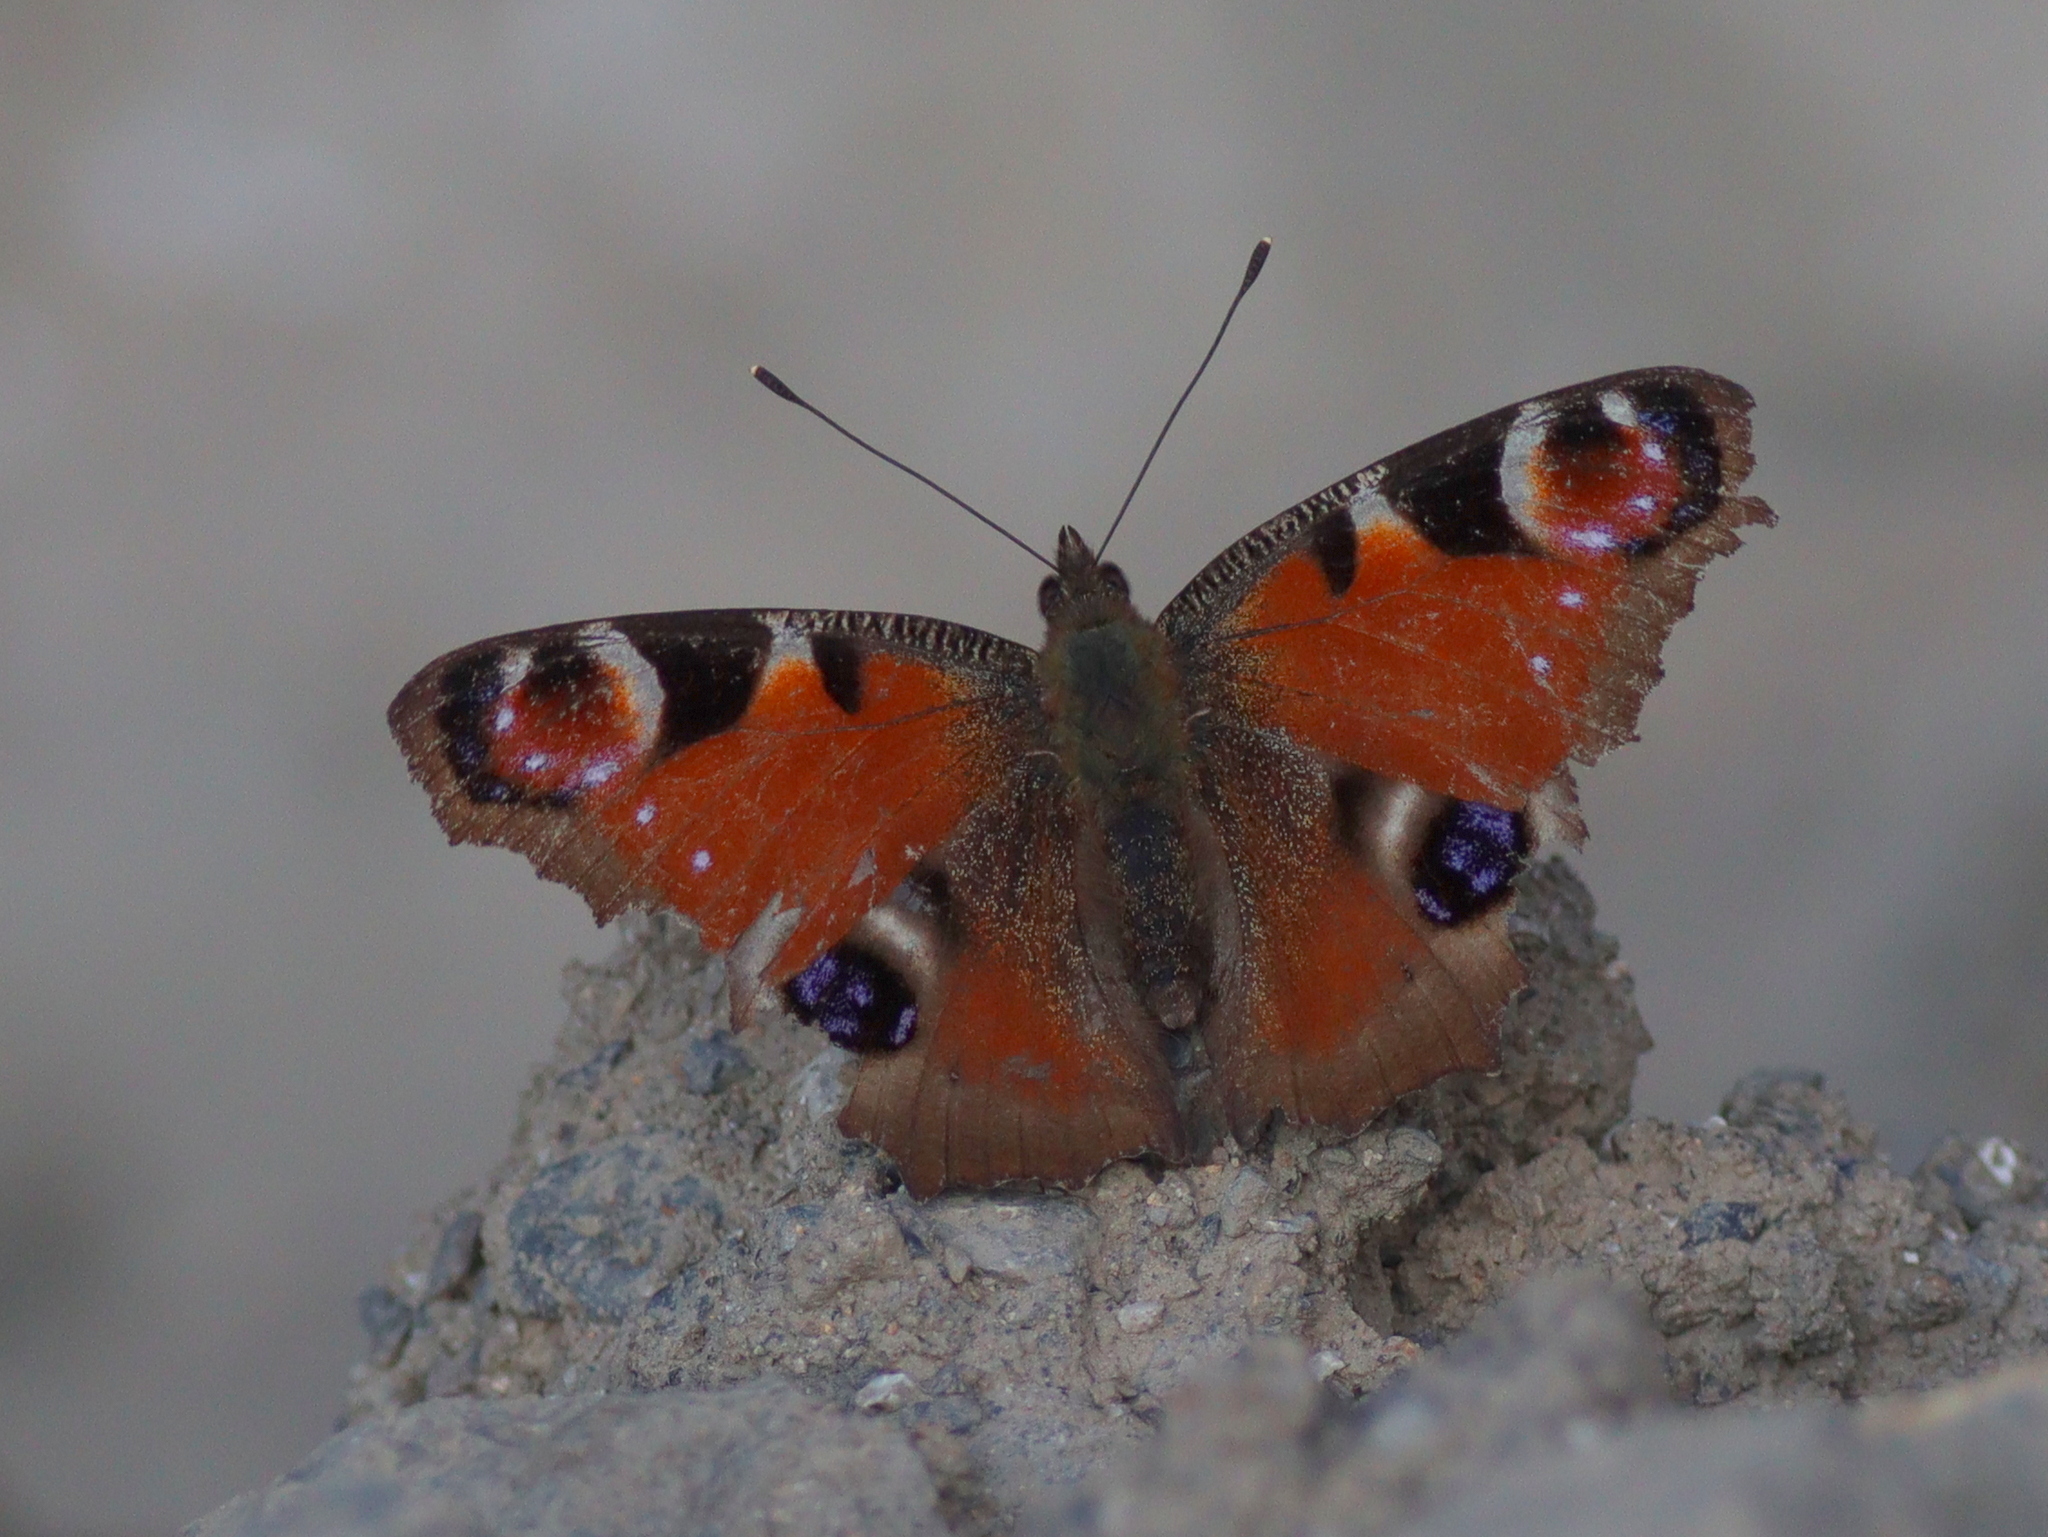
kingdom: Animalia
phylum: Arthropoda
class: Insecta
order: Lepidoptera
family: Nymphalidae
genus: Aglais
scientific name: Aglais io
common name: Peacock
